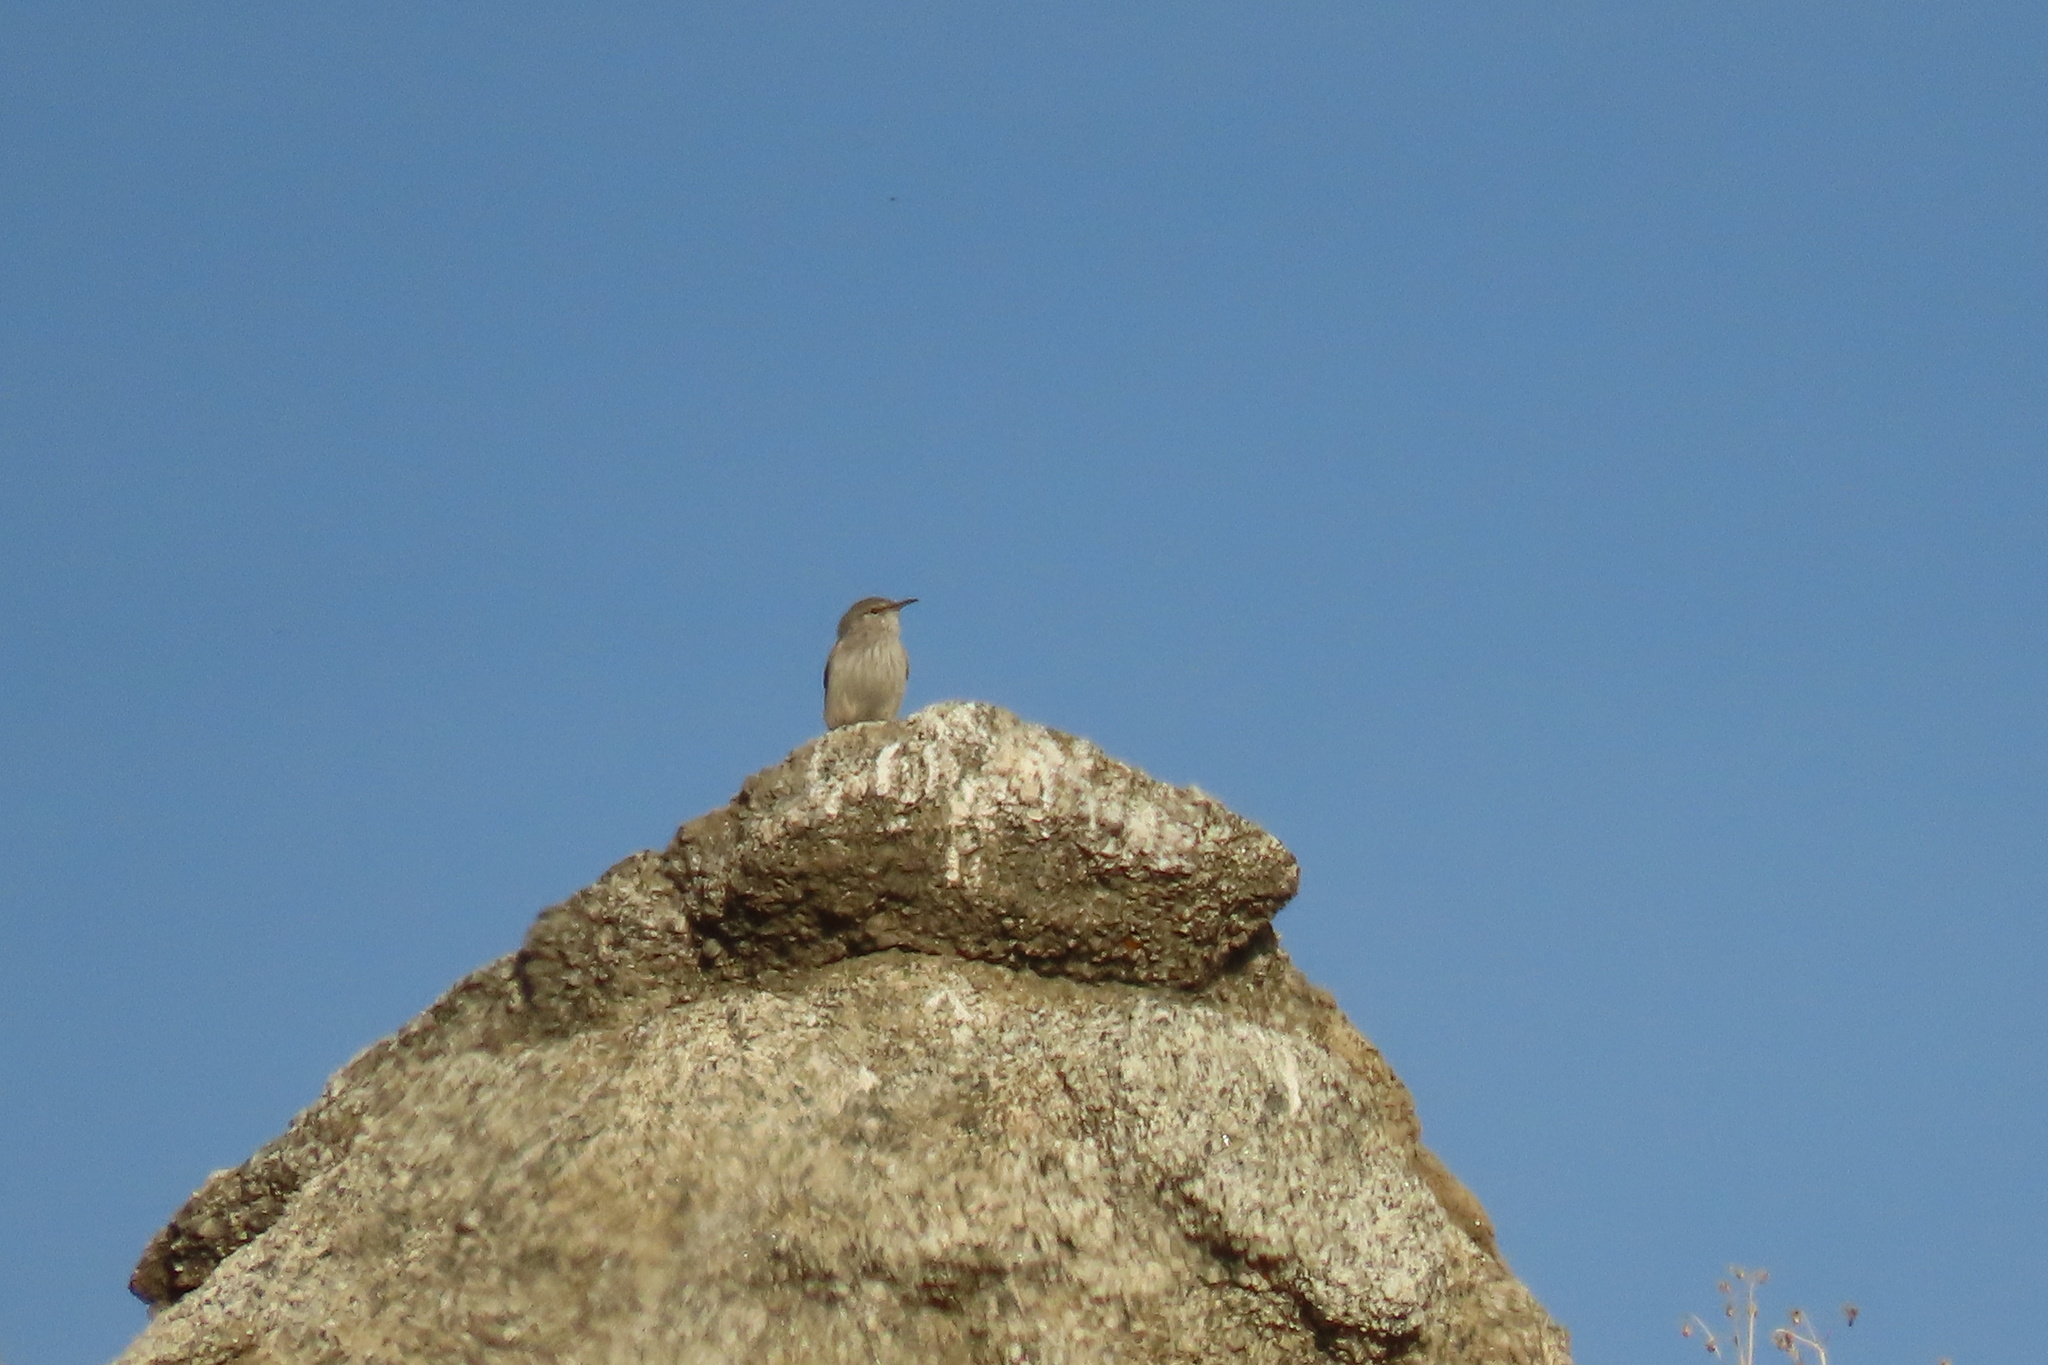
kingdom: Animalia
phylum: Chordata
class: Aves
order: Passeriformes
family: Troglodytidae
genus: Salpinctes
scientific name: Salpinctes obsoletus
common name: Rock wren
